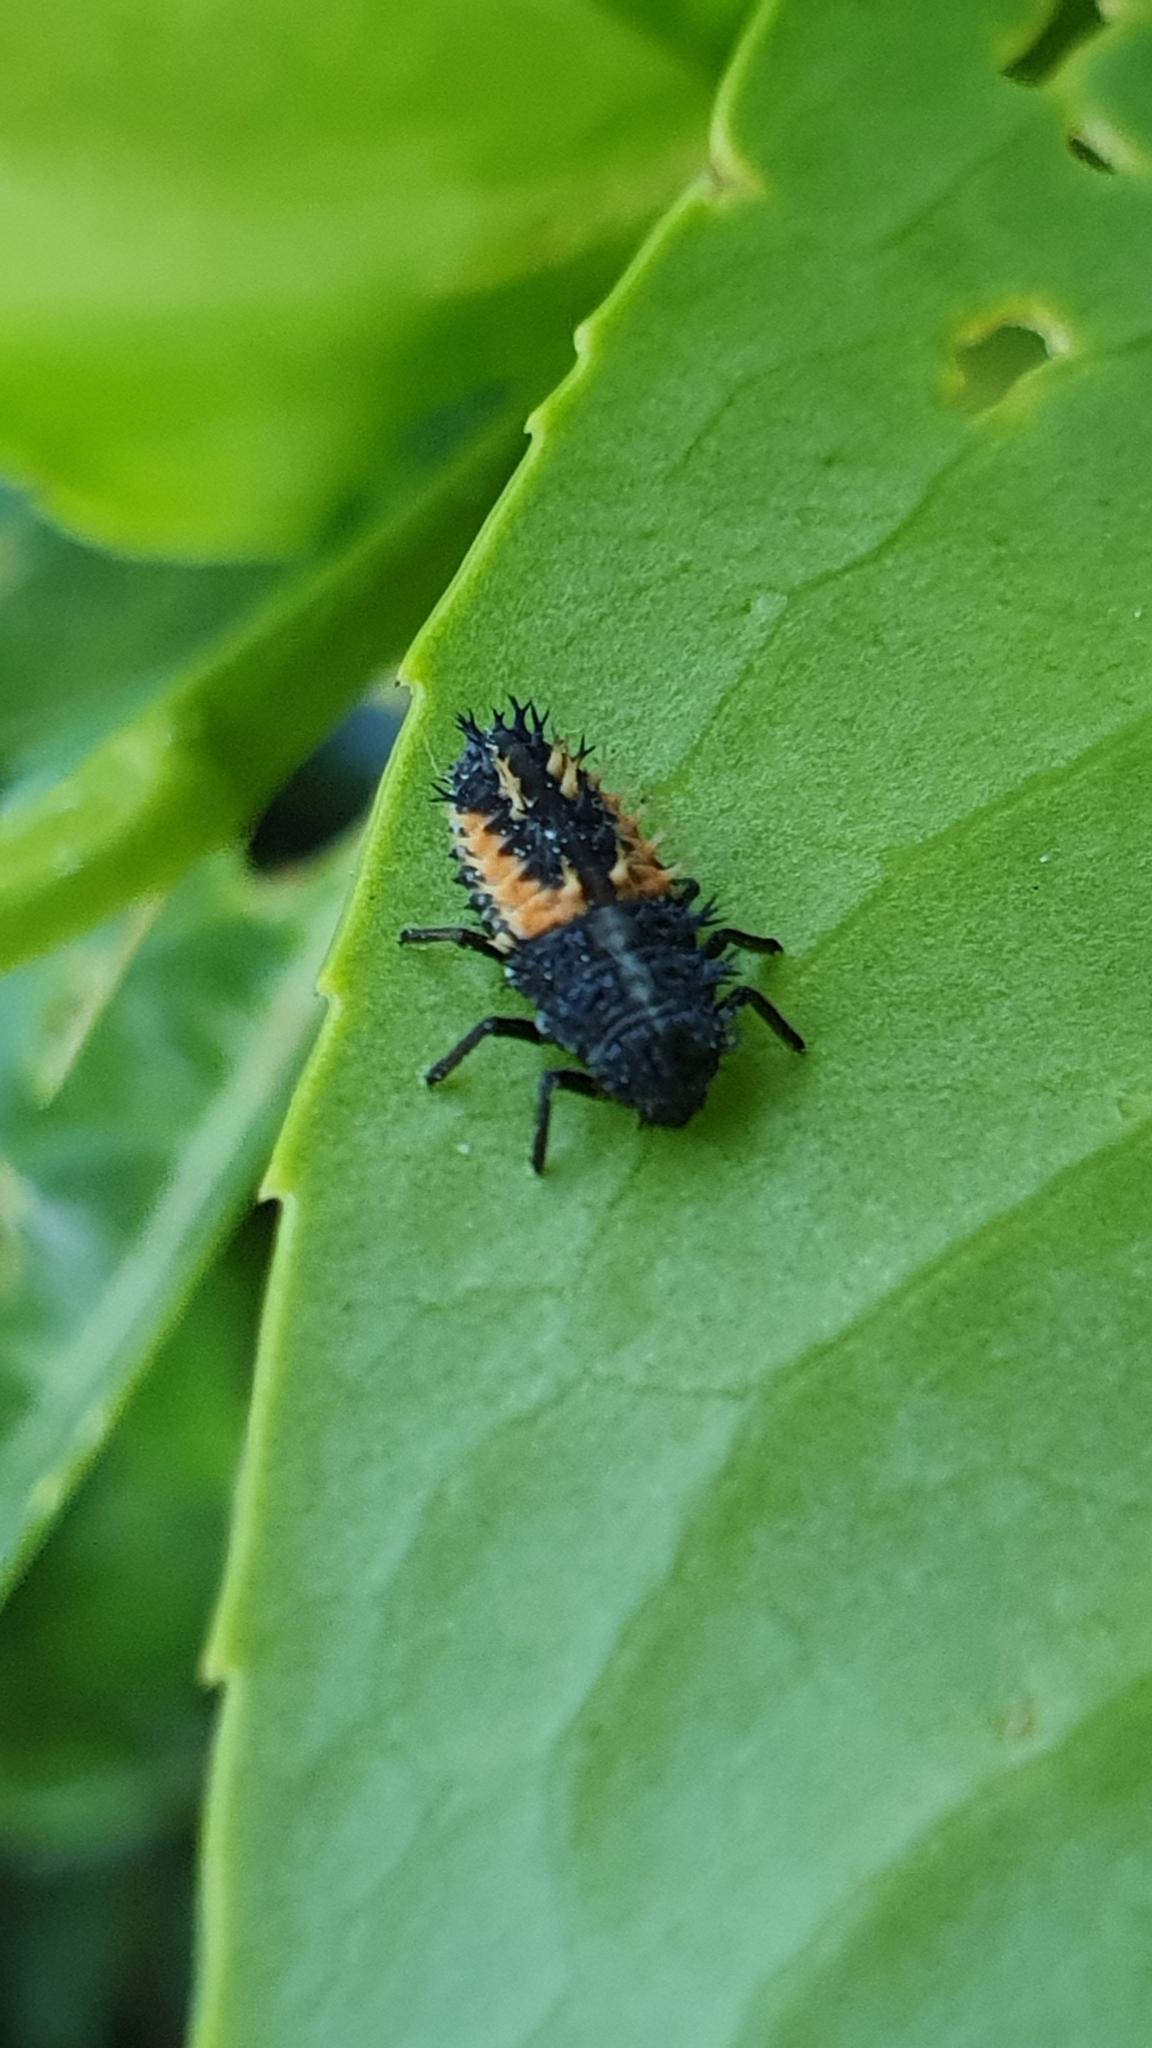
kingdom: Animalia
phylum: Arthropoda
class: Insecta
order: Coleoptera
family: Coccinellidae
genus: Harmonia
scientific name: Harmonia axyridis
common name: Harlequin ladybird
